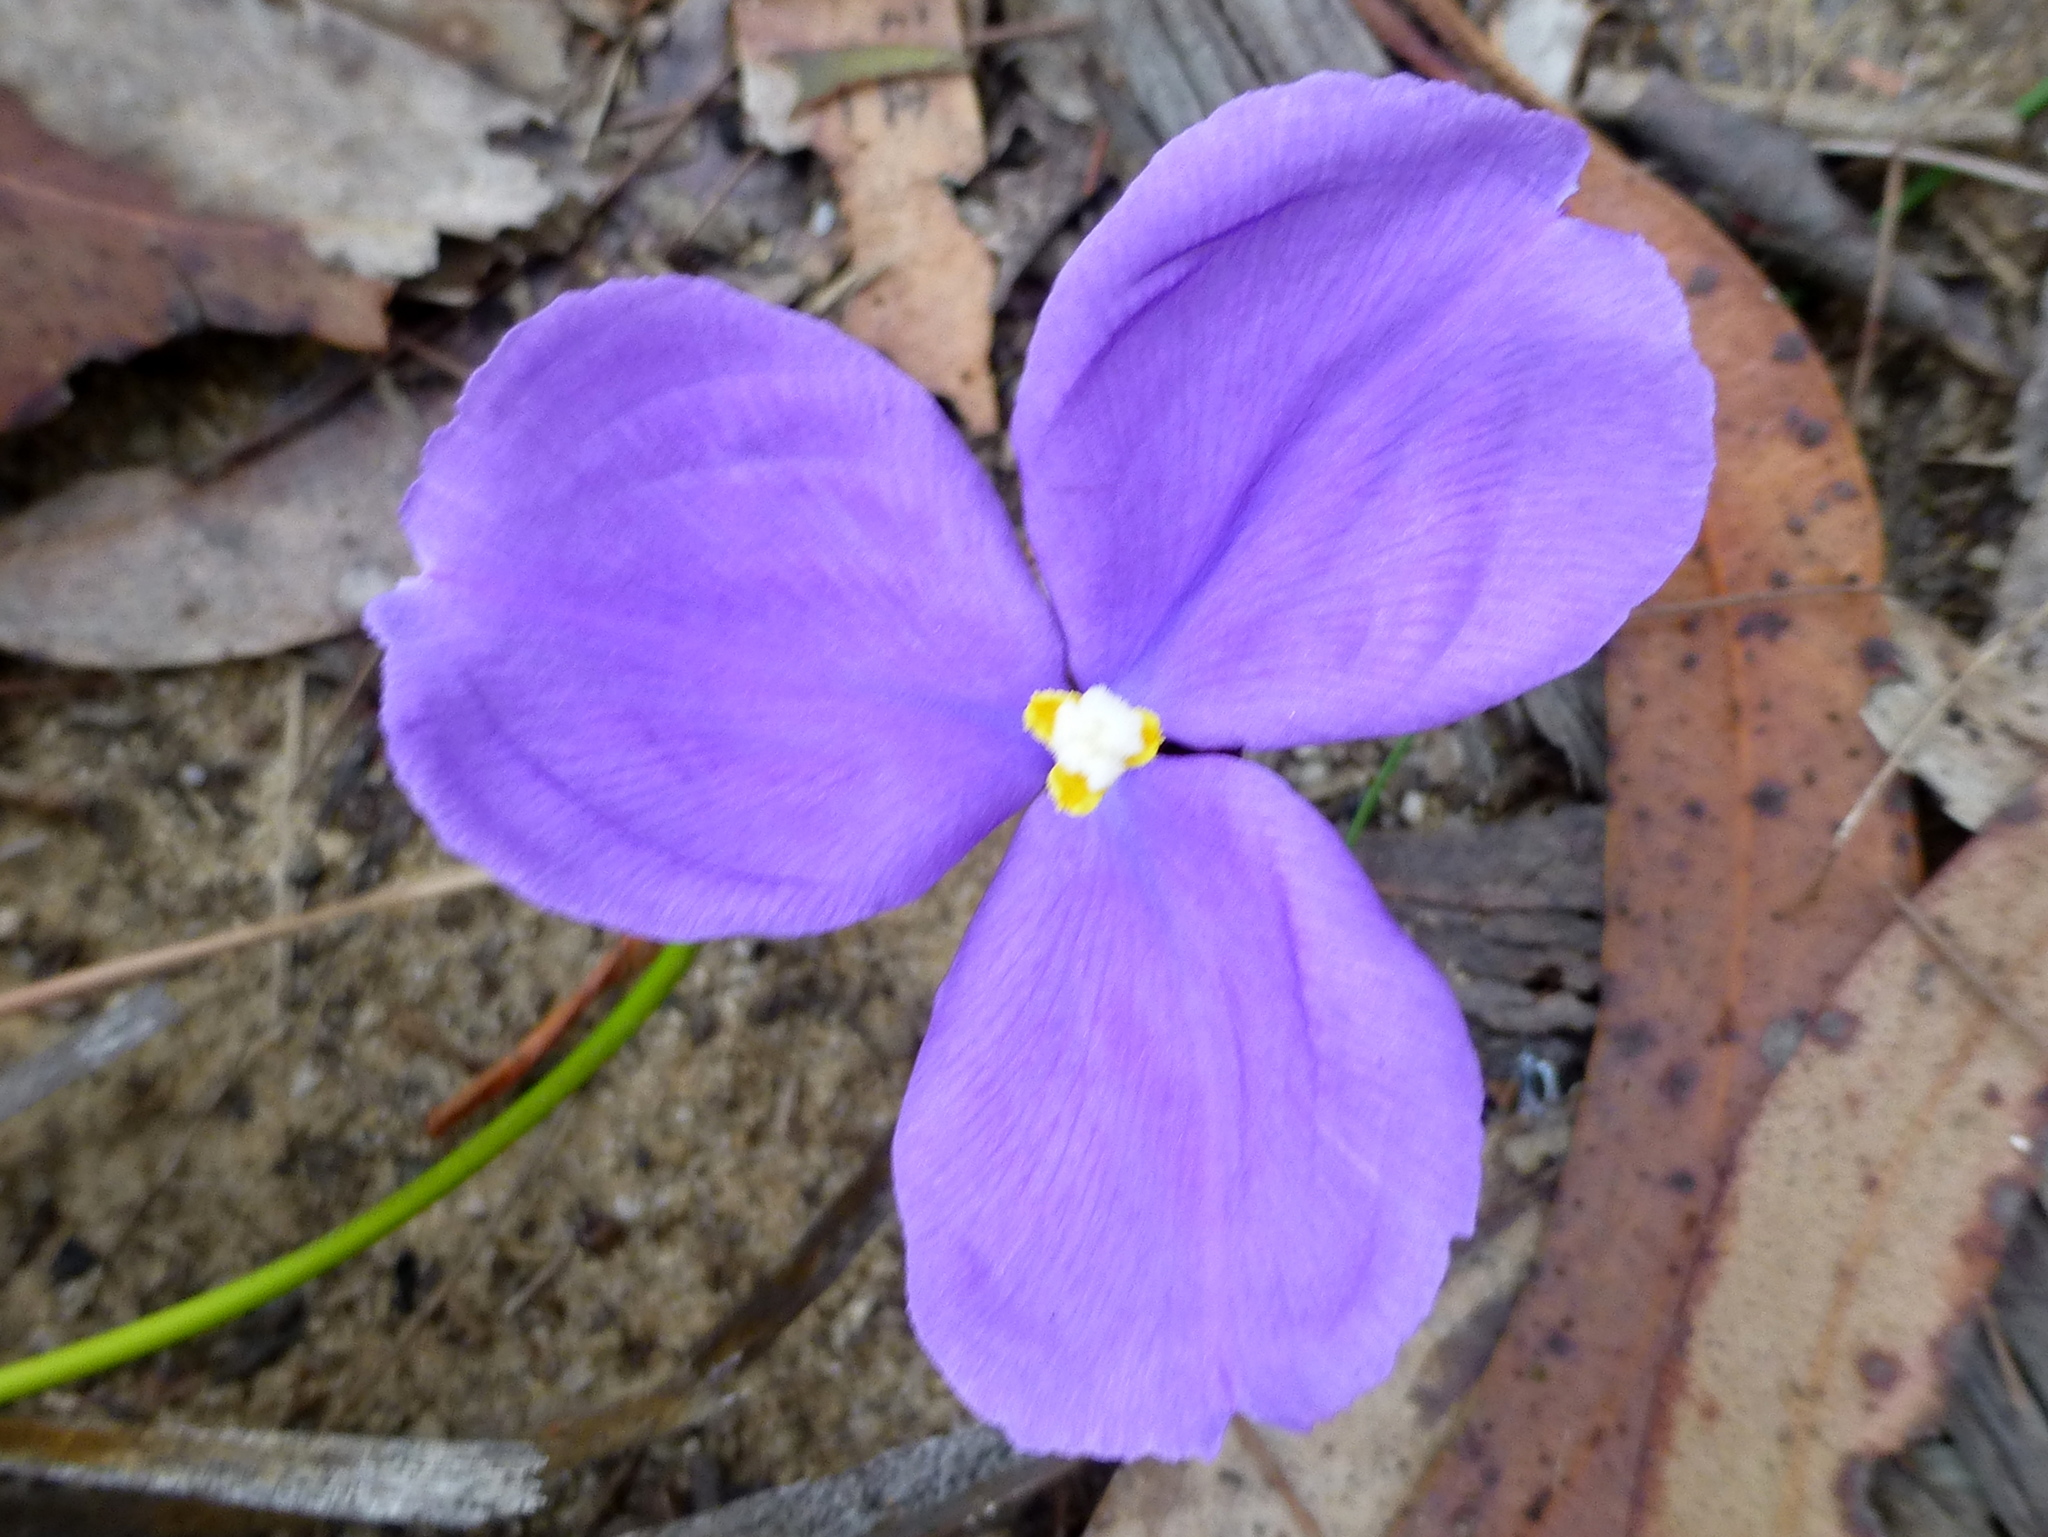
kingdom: Plantae
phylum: Tracheophyta
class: Liliopsida
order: Asparagales
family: Iridaceae
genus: Patersonia
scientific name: Patersonia sericea
